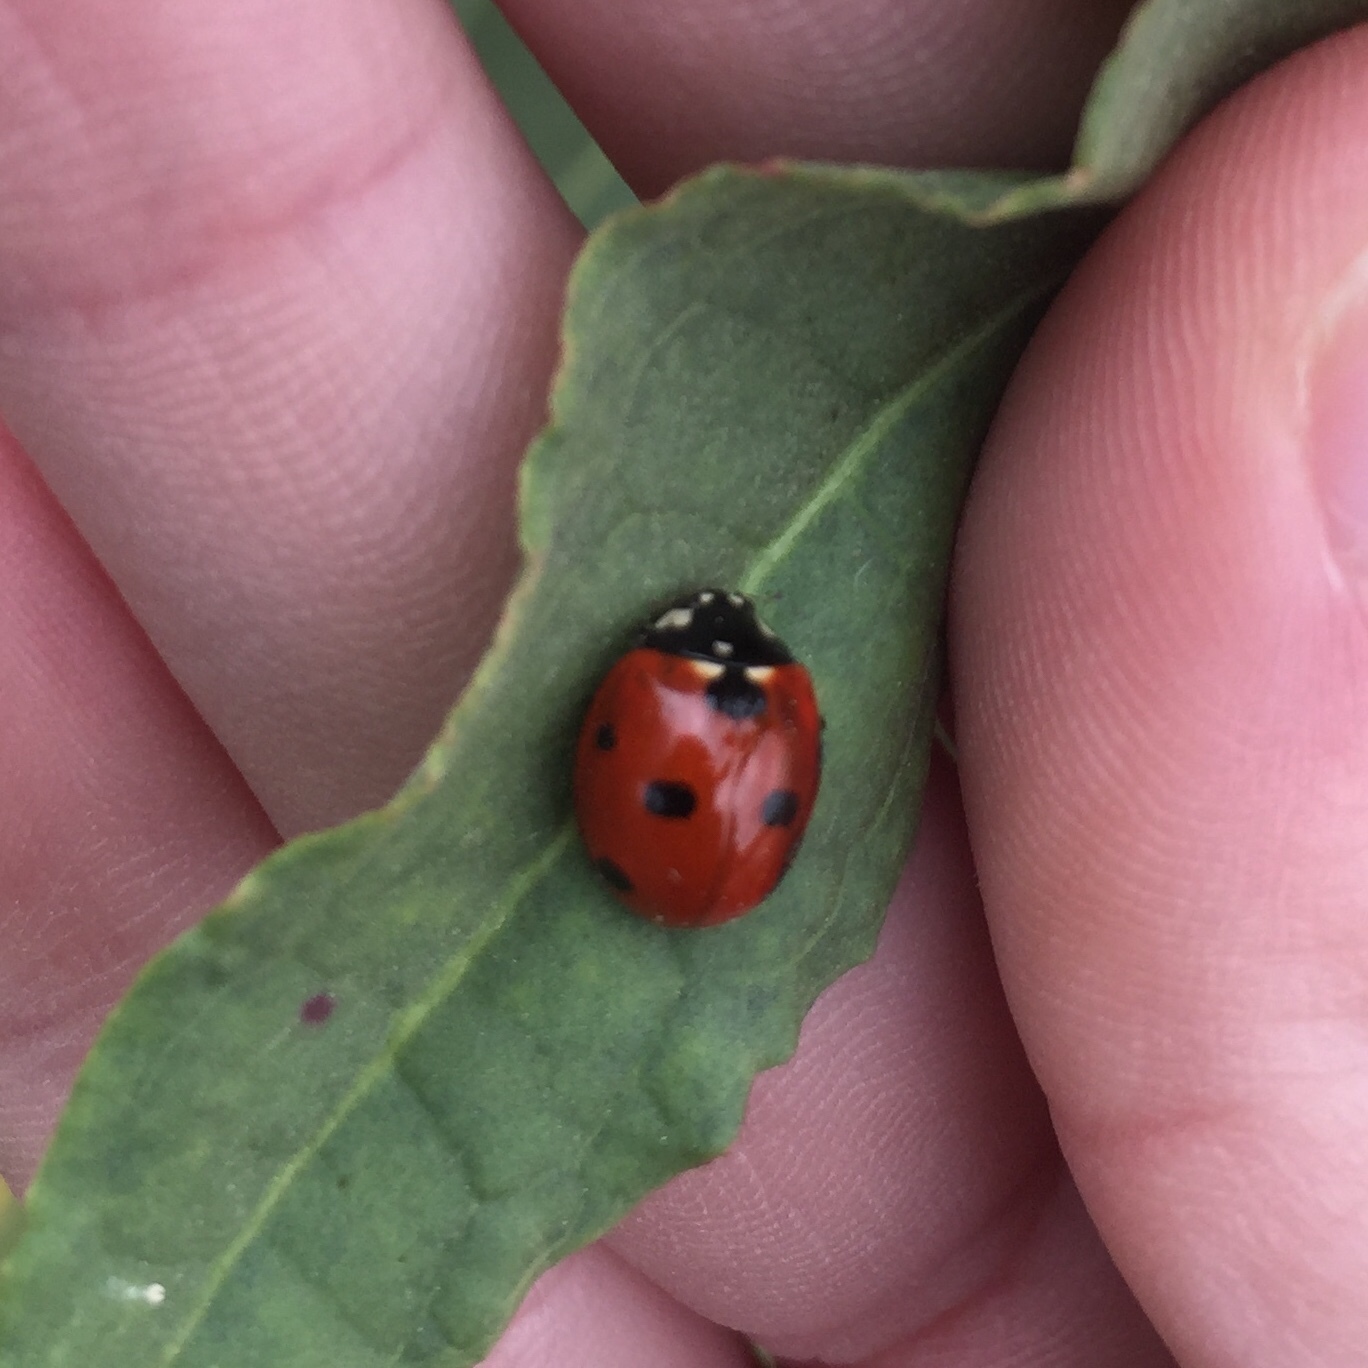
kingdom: Animalia
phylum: Arthropoda
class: Insecta
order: Coleoptera
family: Coccinellidae
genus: Coccinella
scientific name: Coccinella septempunctata
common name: Sevenspotted lady beetle
